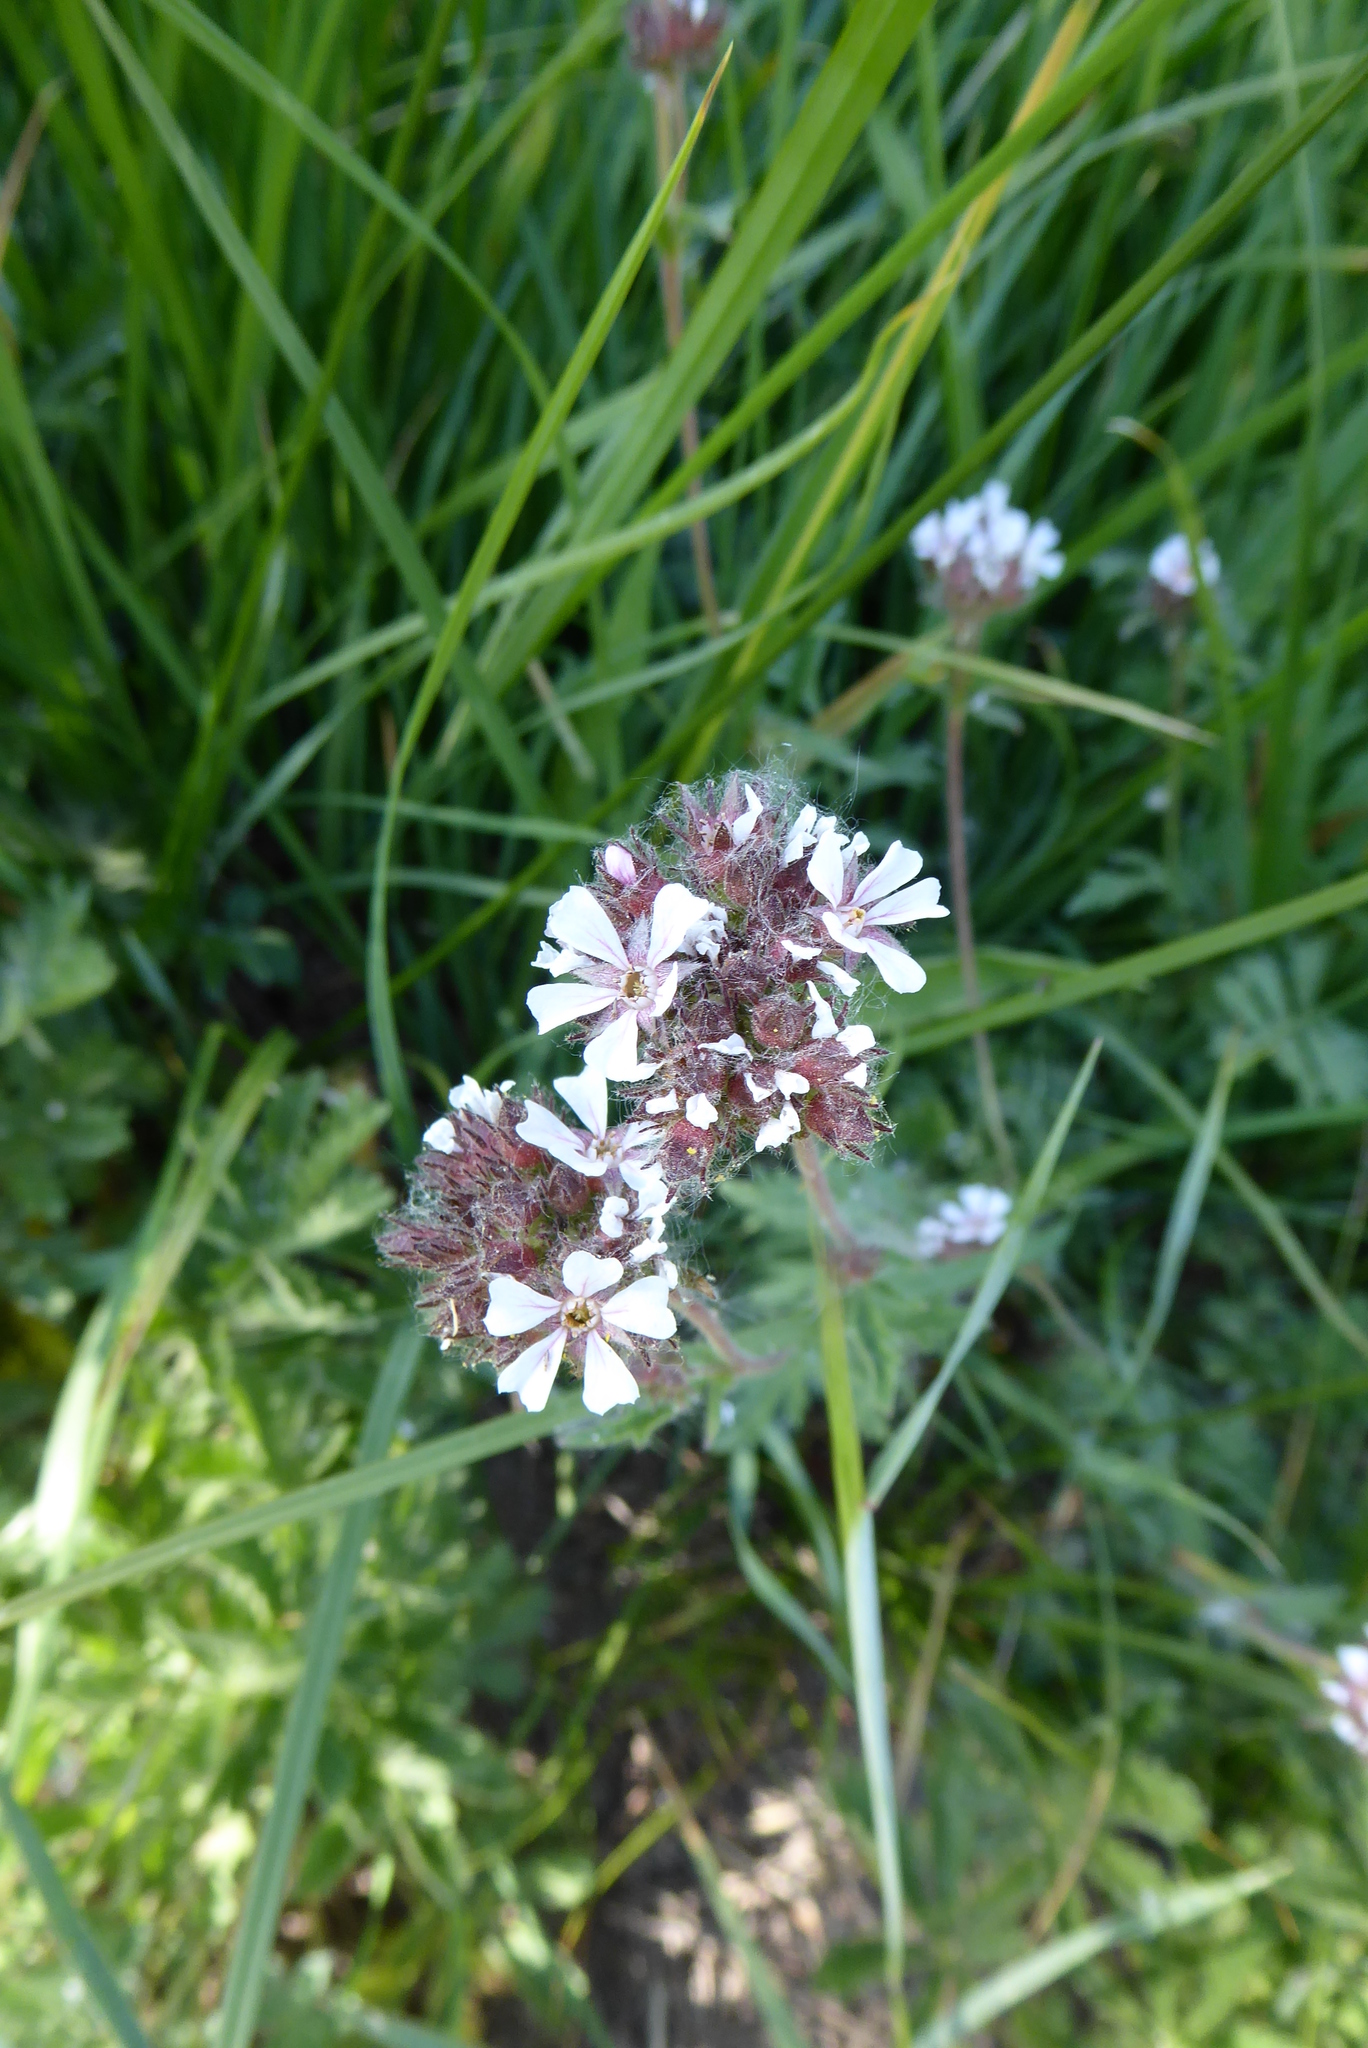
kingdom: Plantae
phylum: Tracheophyta
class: Magnoliopsida
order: Rosales
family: Rosaceae
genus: Potentilla
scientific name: Potentilla douglasii
